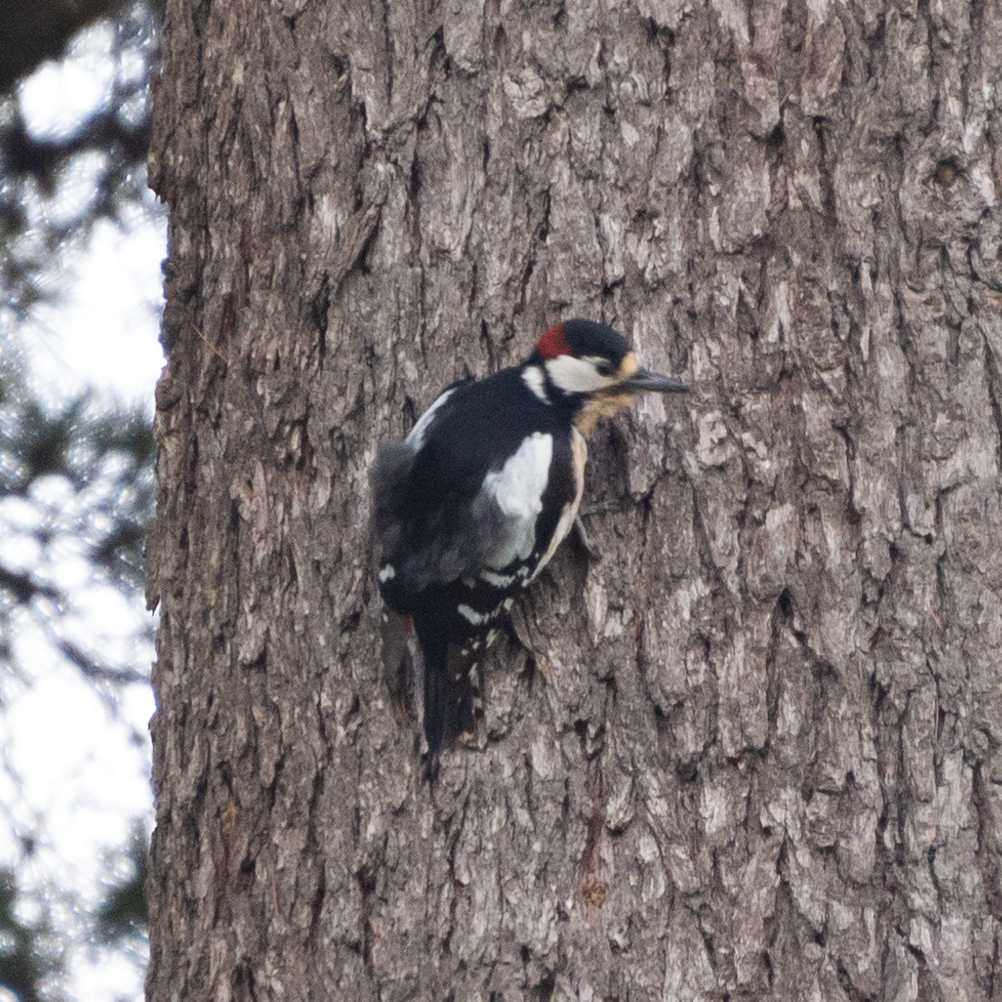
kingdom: Animalia
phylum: Chordata
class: Aves
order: Piciformes
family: Picidae
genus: Dendrocopos
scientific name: Dendrocopos major
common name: Great spotted woodpecker
